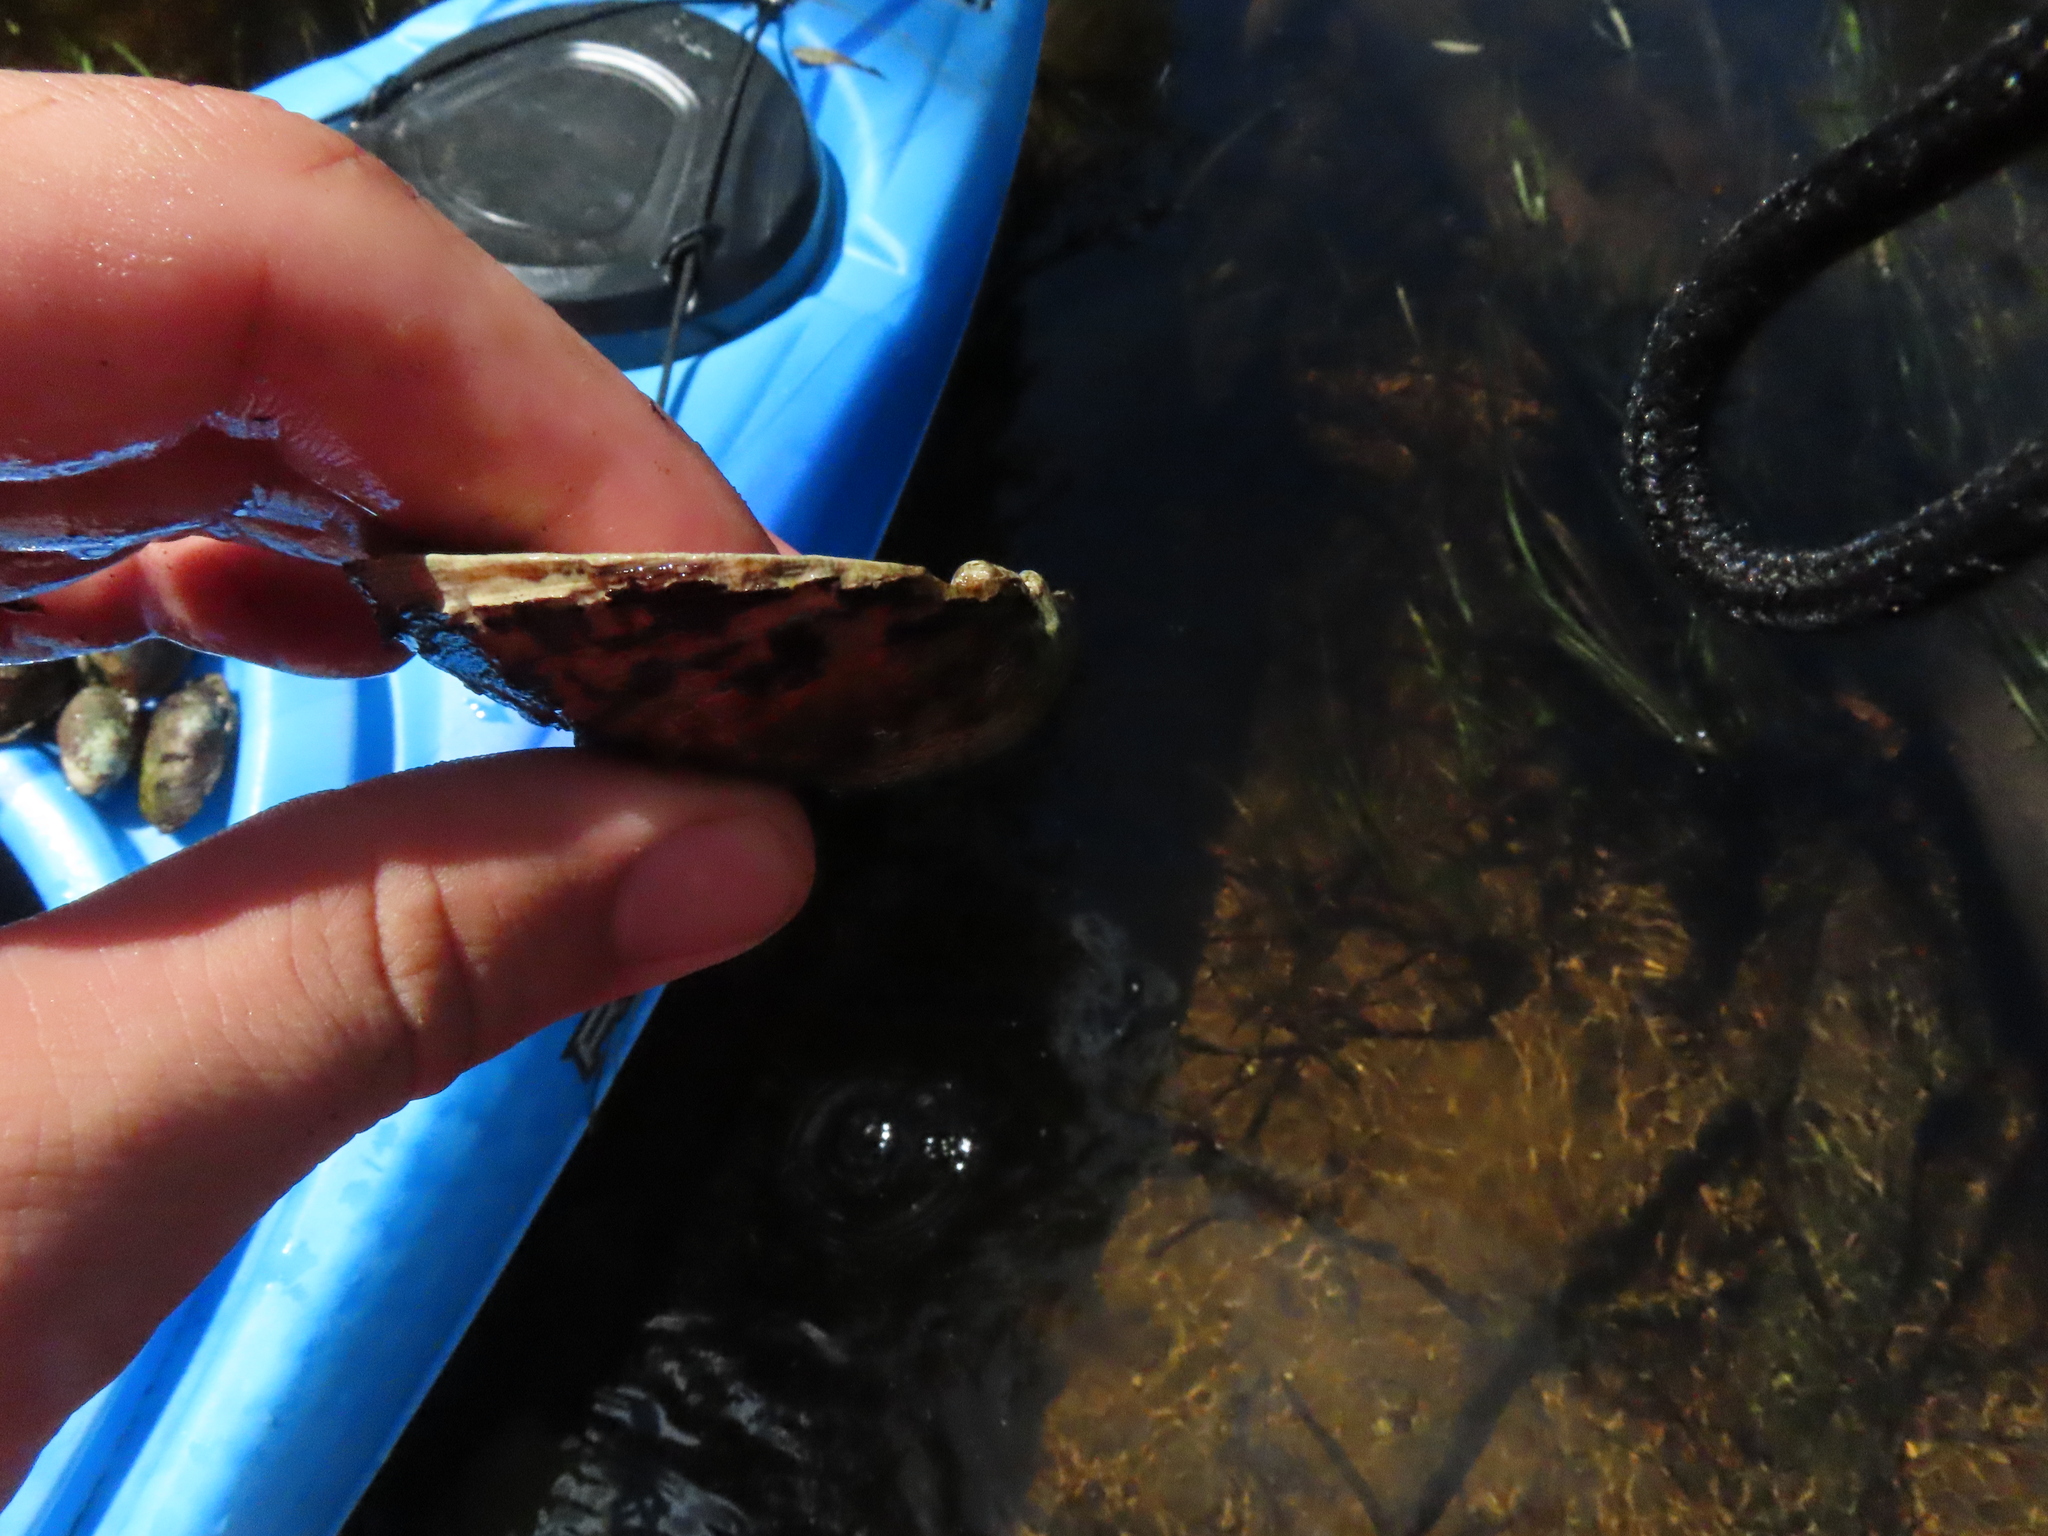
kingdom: Animalia
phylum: Mollusca
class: Bivalvia
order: Unionida
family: Unionidae
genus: Ligumia
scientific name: Ligumia recta
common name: Black sandshell
